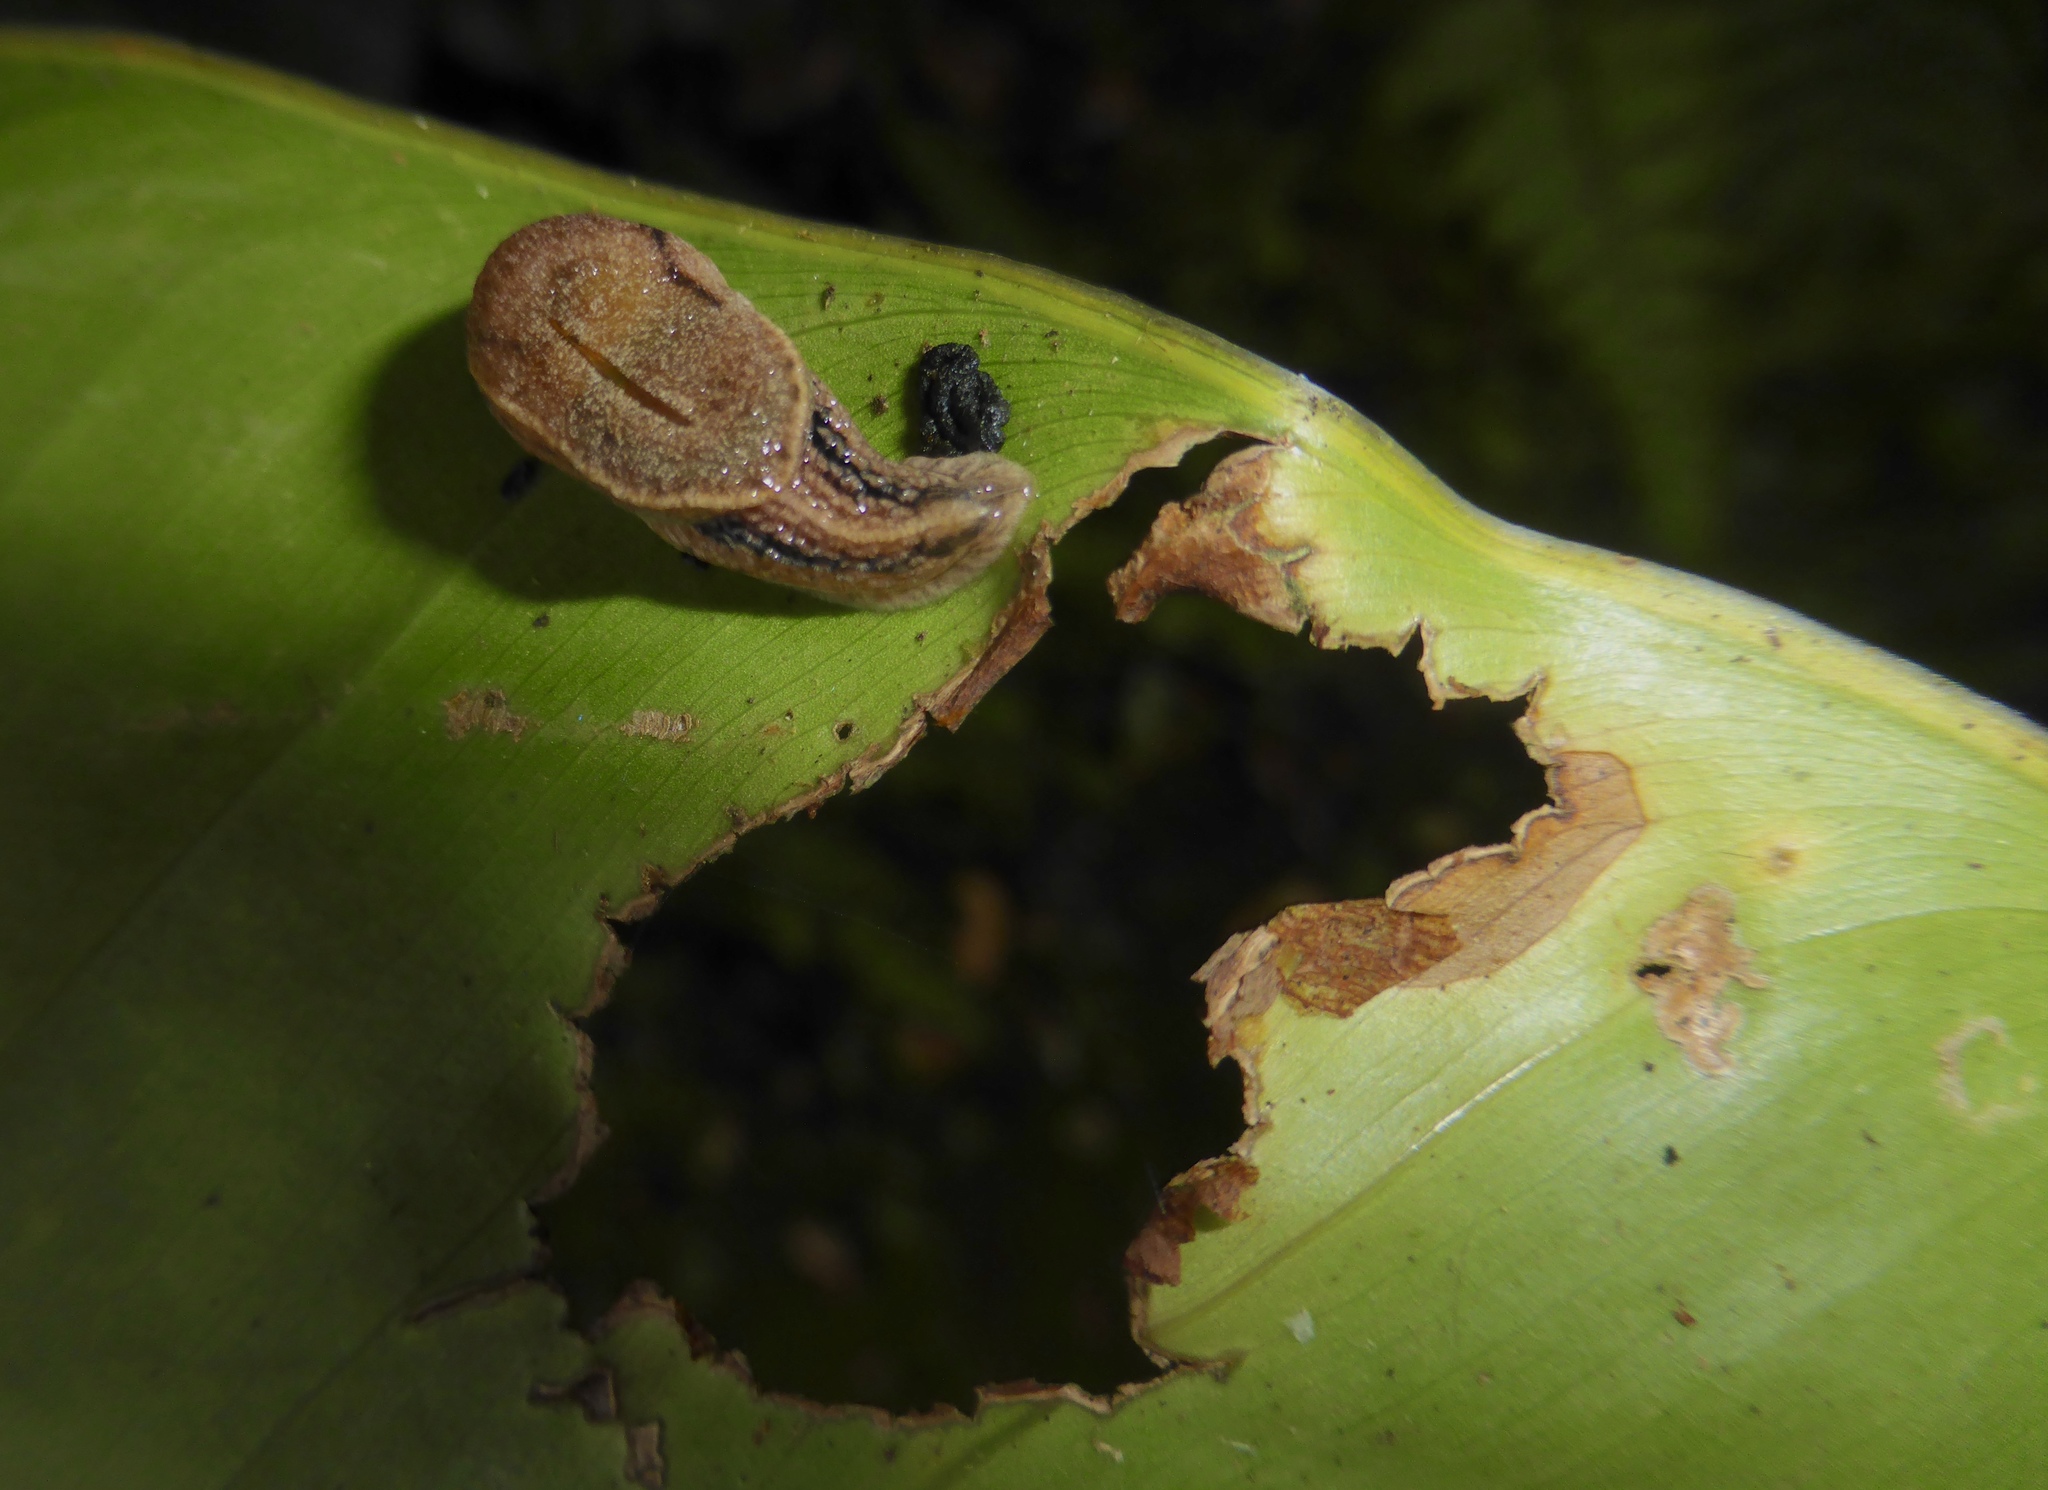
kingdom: Animalia
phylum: Mollusca
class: Gastropoda
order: Stylommatophora
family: Ariophantidae
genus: Parmarion
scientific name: Parmarion martensi
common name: Semi-slug
